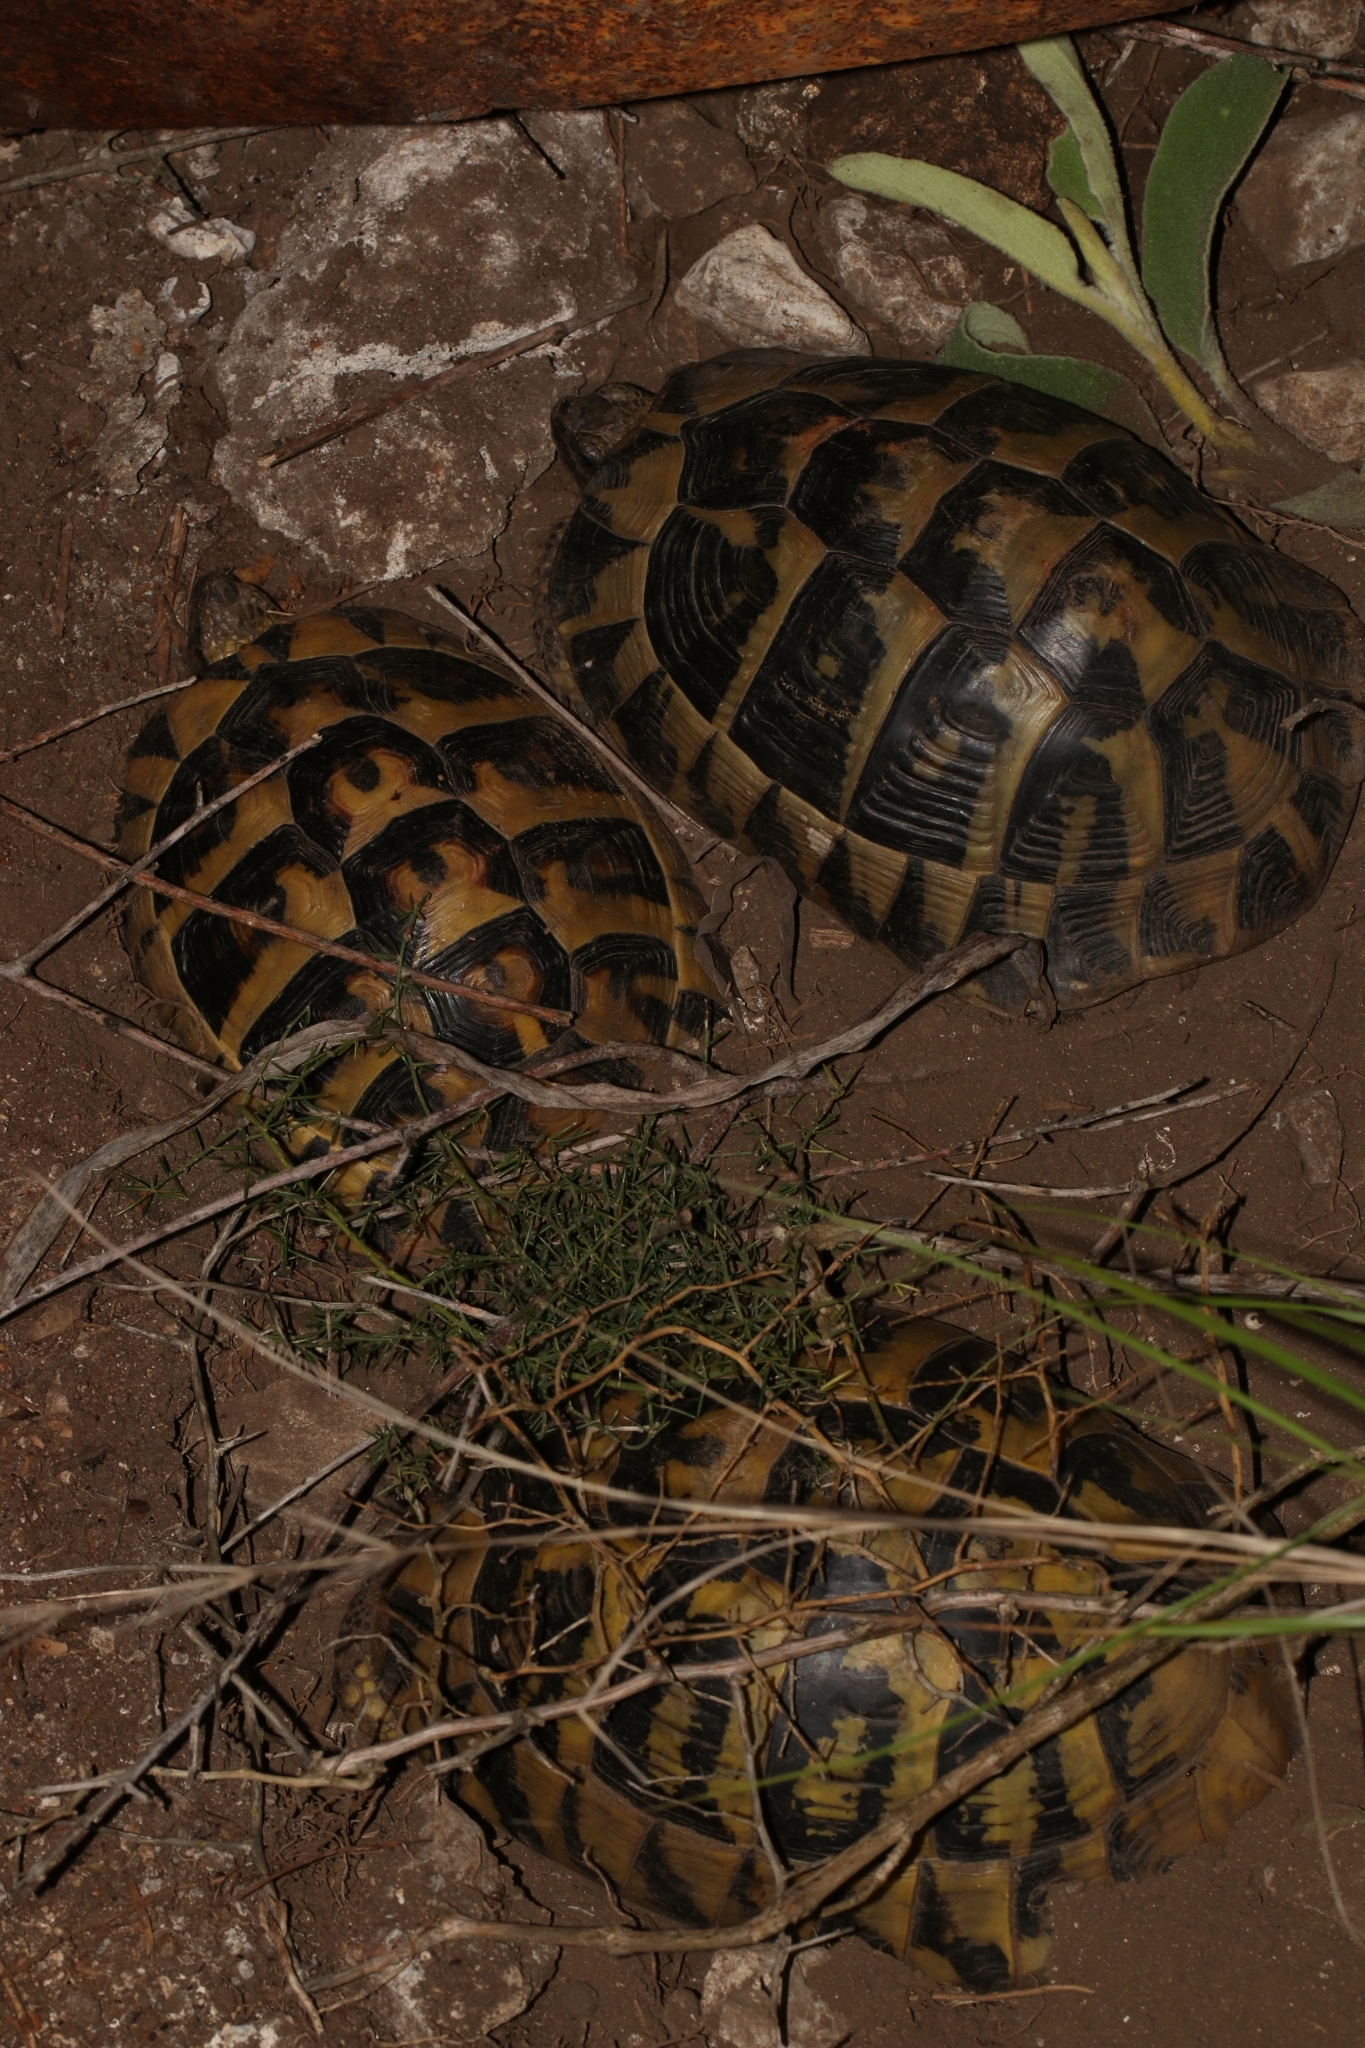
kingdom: Animalia
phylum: Chordata
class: Testudines
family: Testudinidae
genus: Testudo
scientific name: Testudo hermanni
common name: Hermann's tortoise
